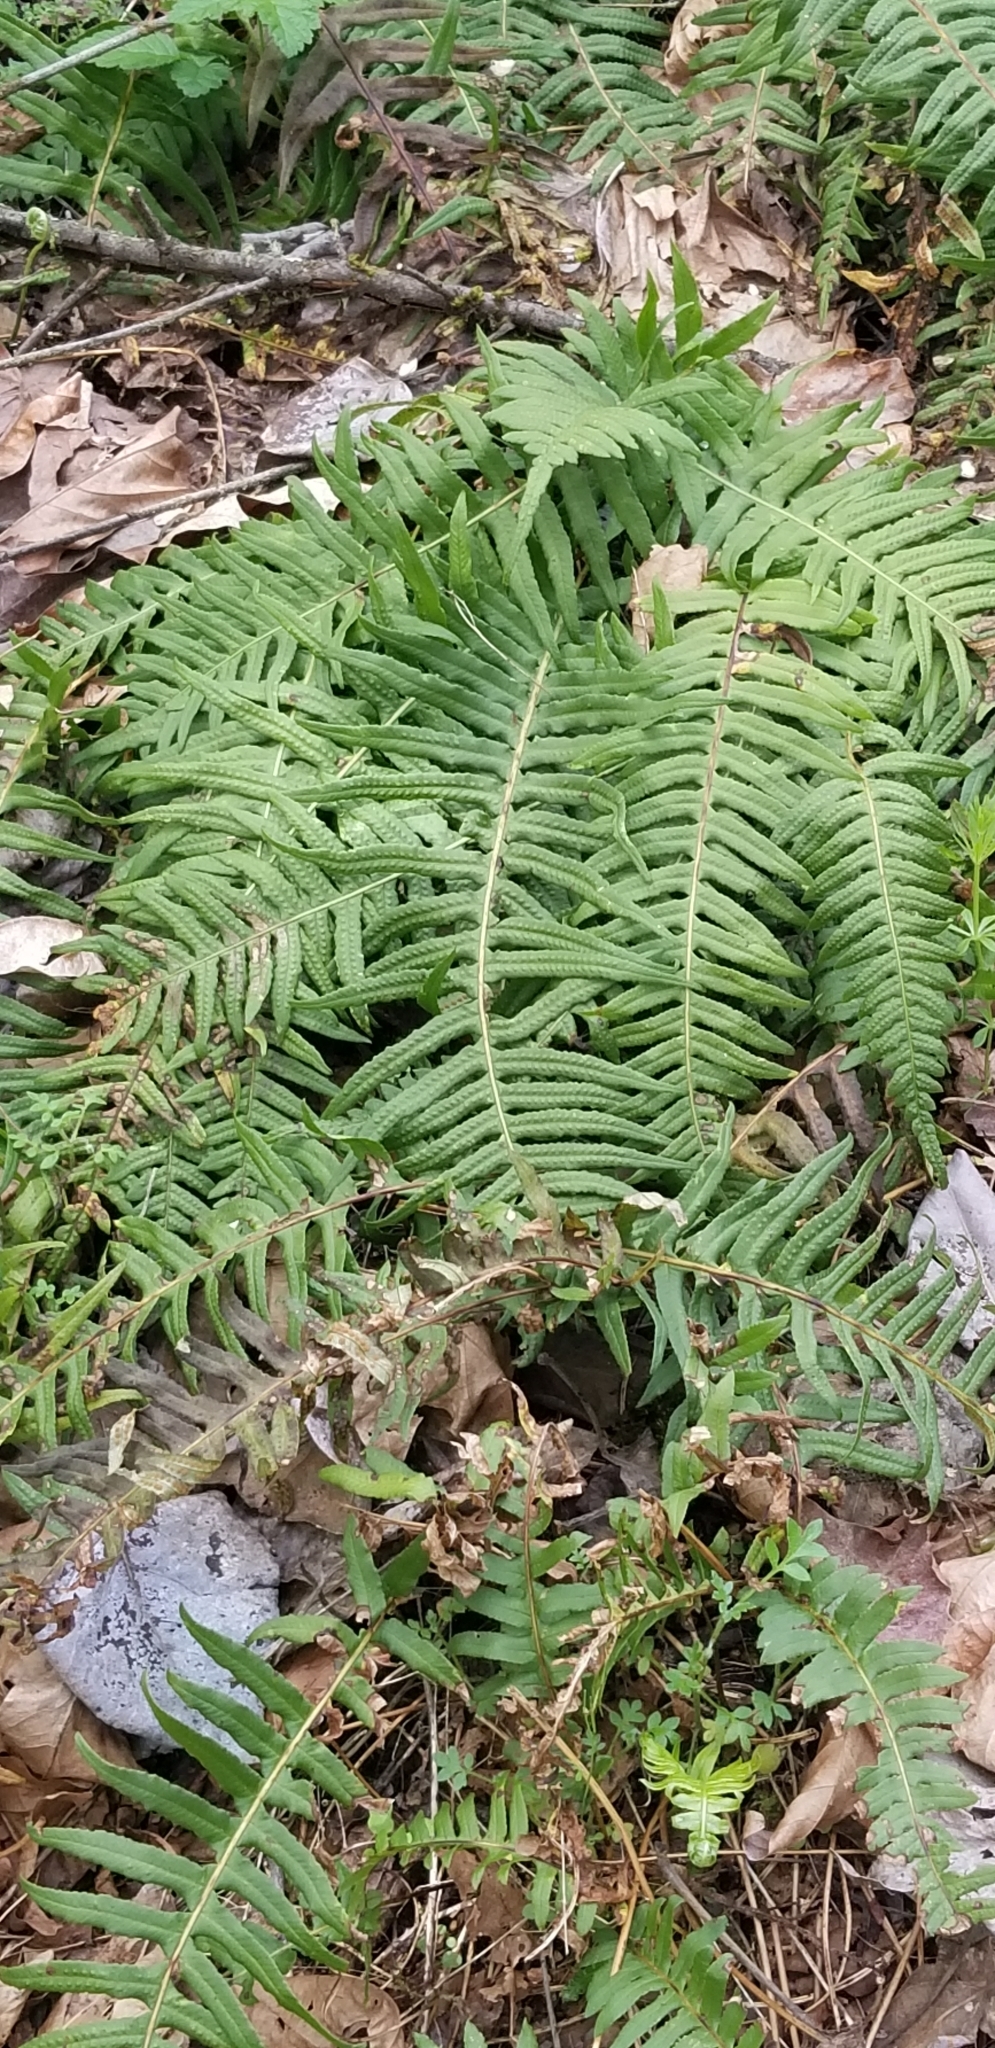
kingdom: Plantae
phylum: Tracheophyta
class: Polypodiopsida
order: Polypodiales
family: Polypodiaceae
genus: Polypodium
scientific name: Polypodium glycyrrhiza
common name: Licorice fern
